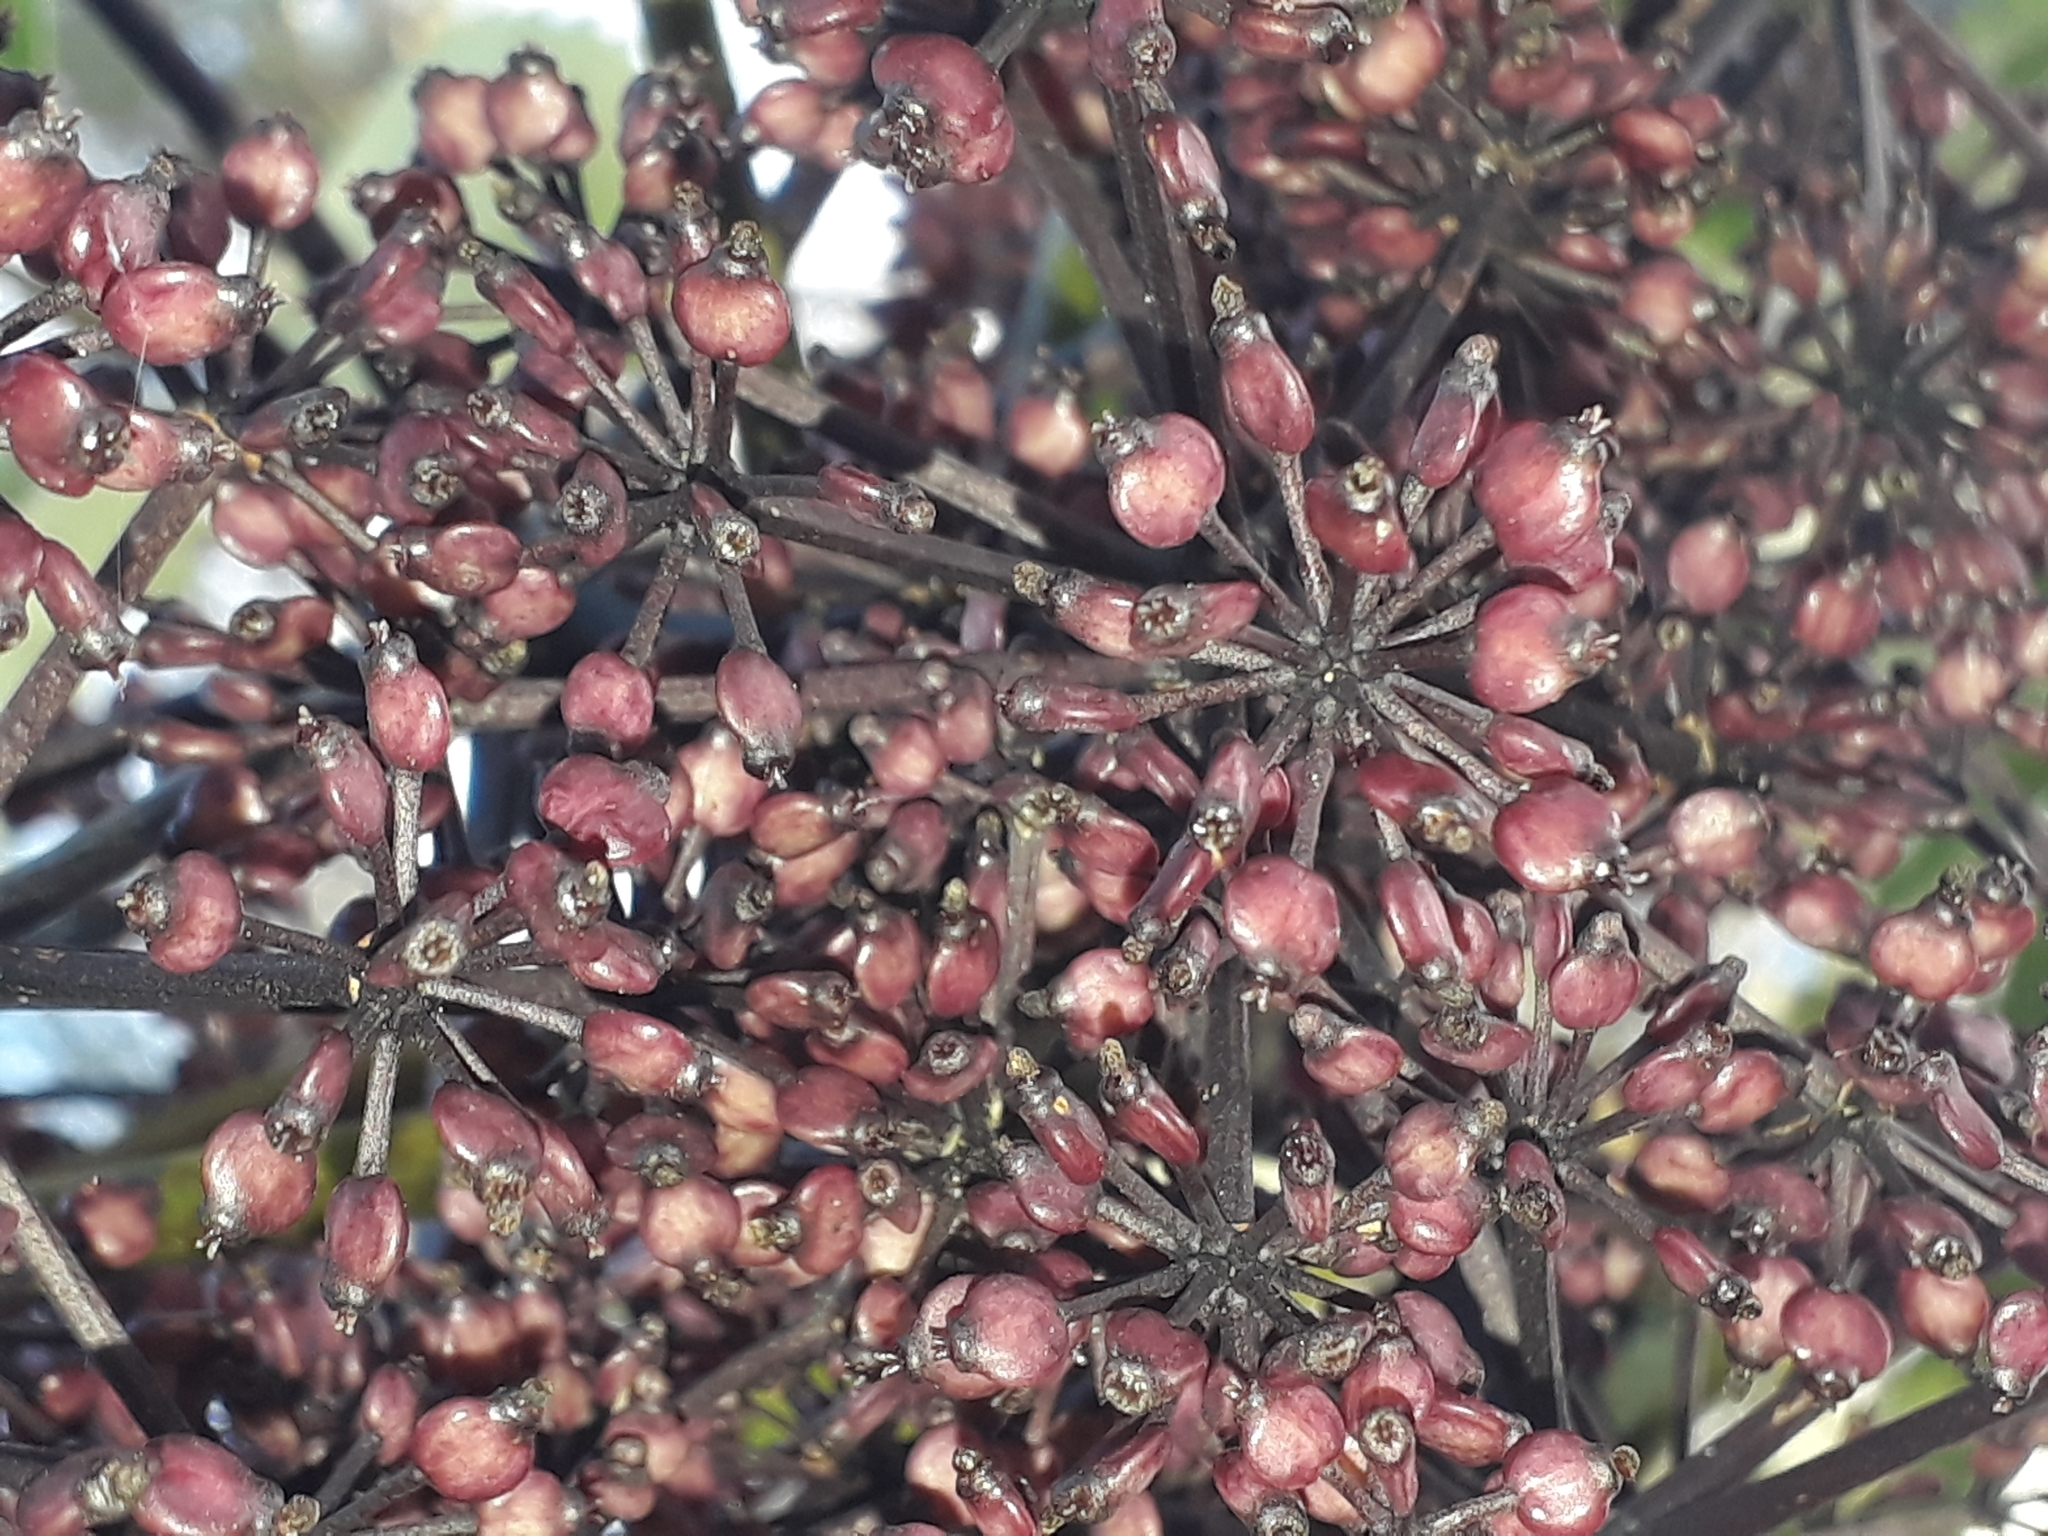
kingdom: Plantae
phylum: Tracheophyta
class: Magnoliopsida
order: Apiales
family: Araliaceae
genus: Neopanax
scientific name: Neopanax arboreus
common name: Five-fingers
